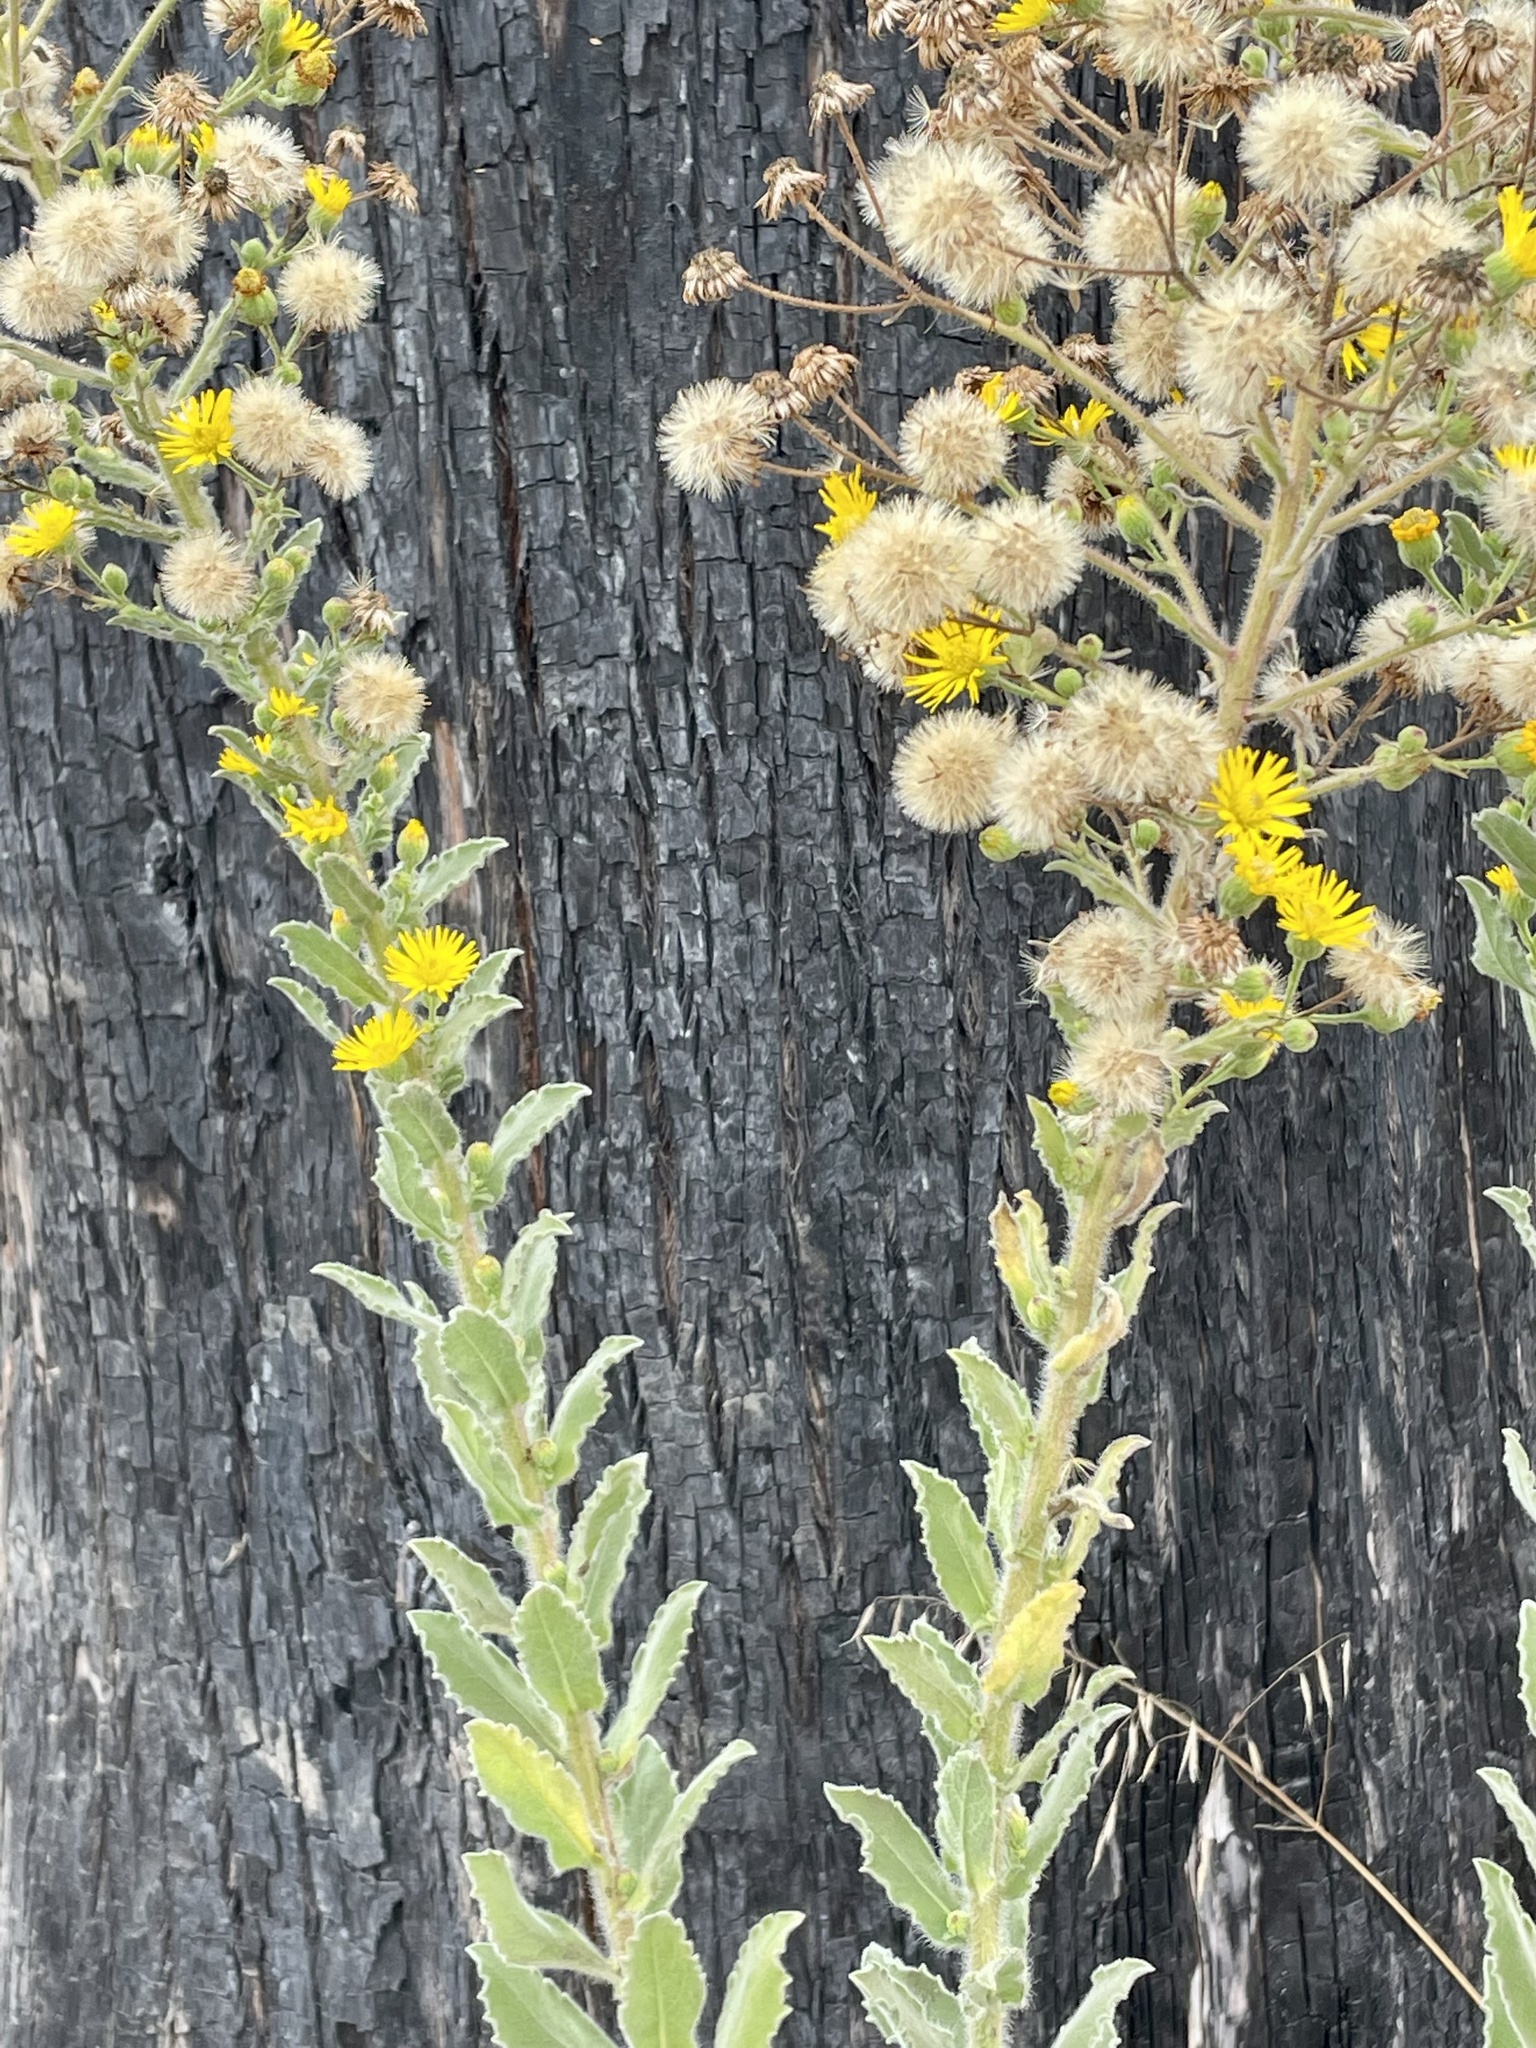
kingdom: Plantae
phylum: Tracheophyta
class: Magnoliopsida
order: Asterales
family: Asteraceae
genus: Heterotheca
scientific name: Heterotheca grandiflora
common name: Telegraphweed
